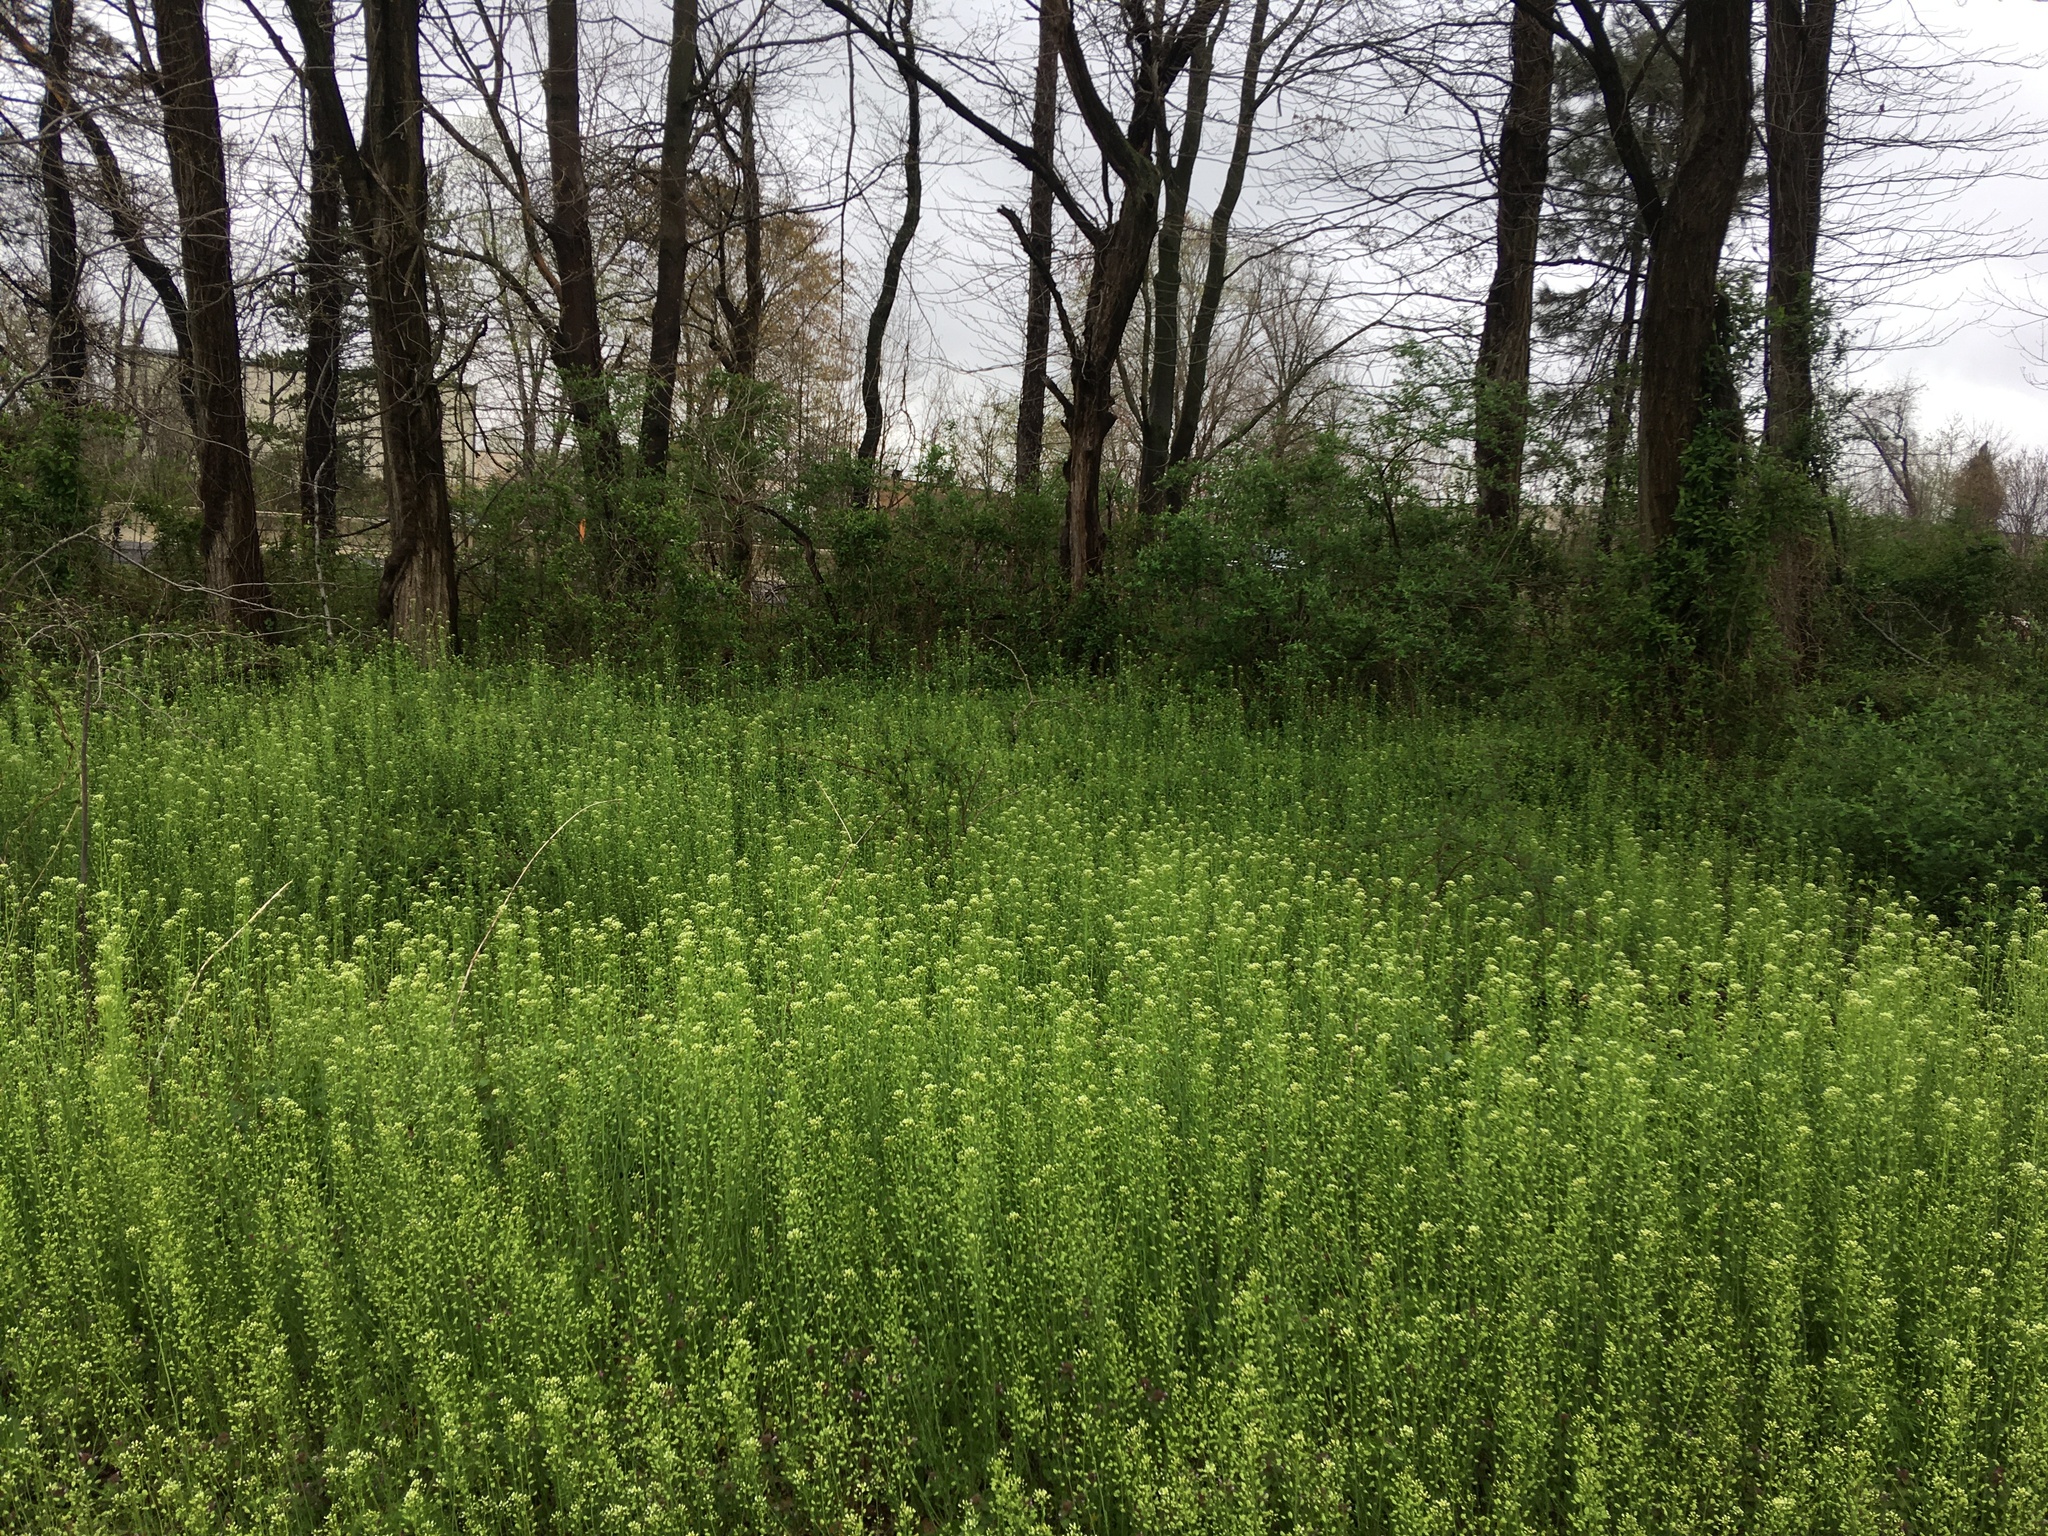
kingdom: Plantae
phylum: Tracheophyta
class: Magnoliopsida
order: Brassicales
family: Brassicaceae
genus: Mummenhoffia
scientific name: Mummenhoffia alliacea
